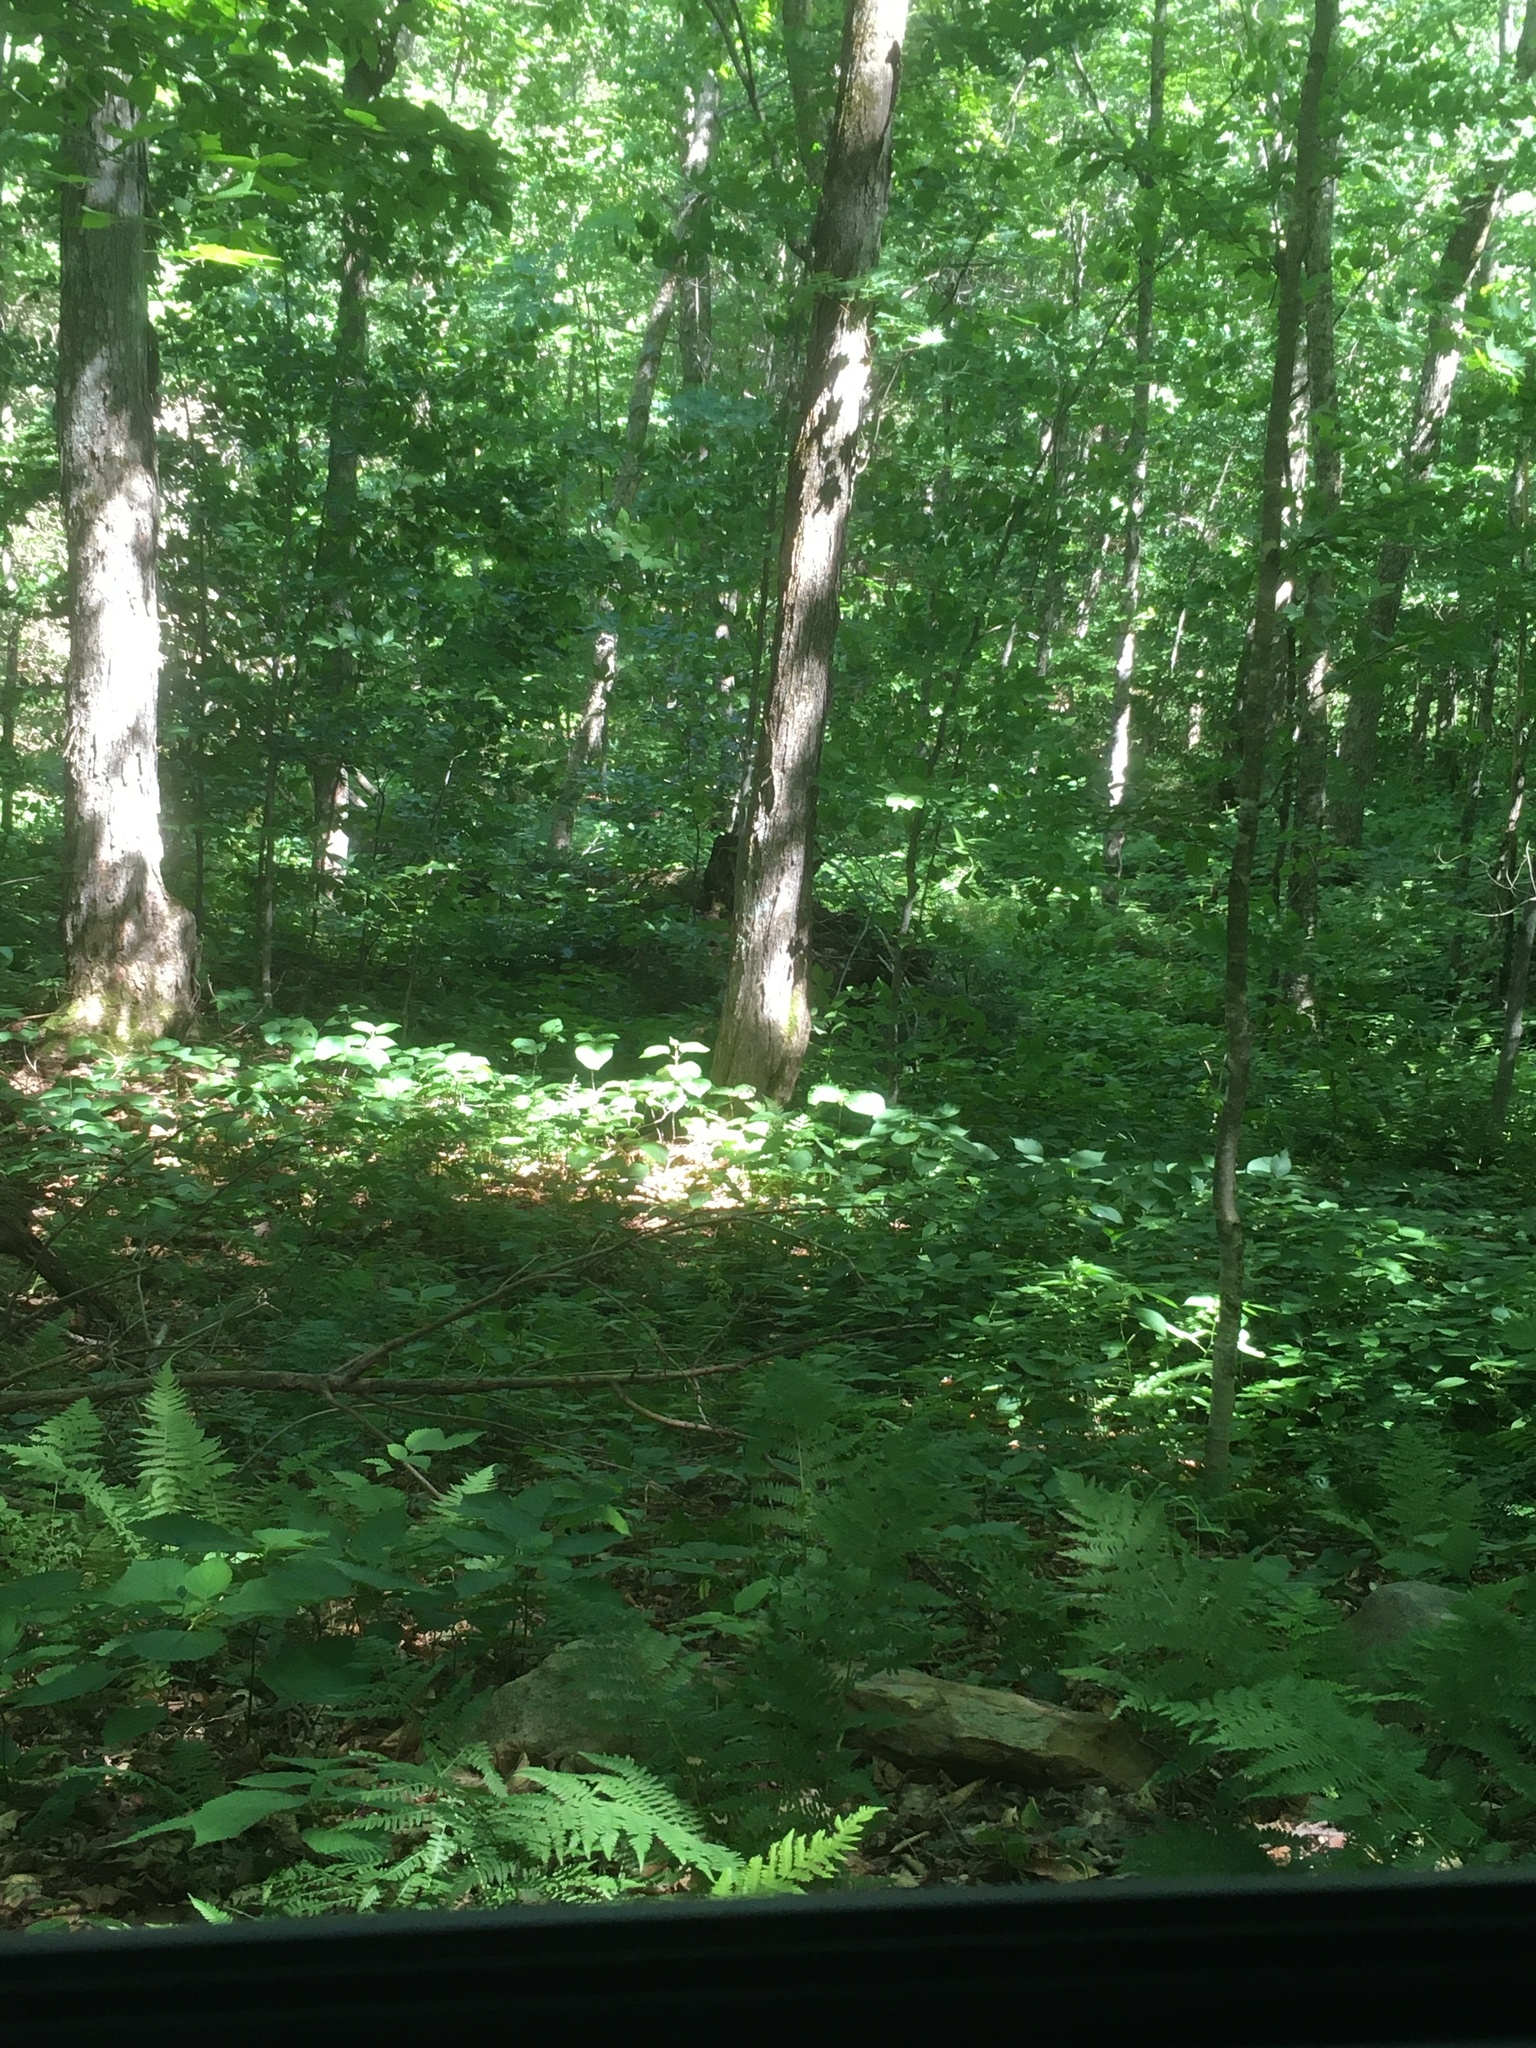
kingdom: Plantae
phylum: Tracheophyta
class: Magnoliopsida
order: Dipsacales
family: Viburnaceae
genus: Viburnum
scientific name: Viburnum lantanoides
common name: Hobblebush
